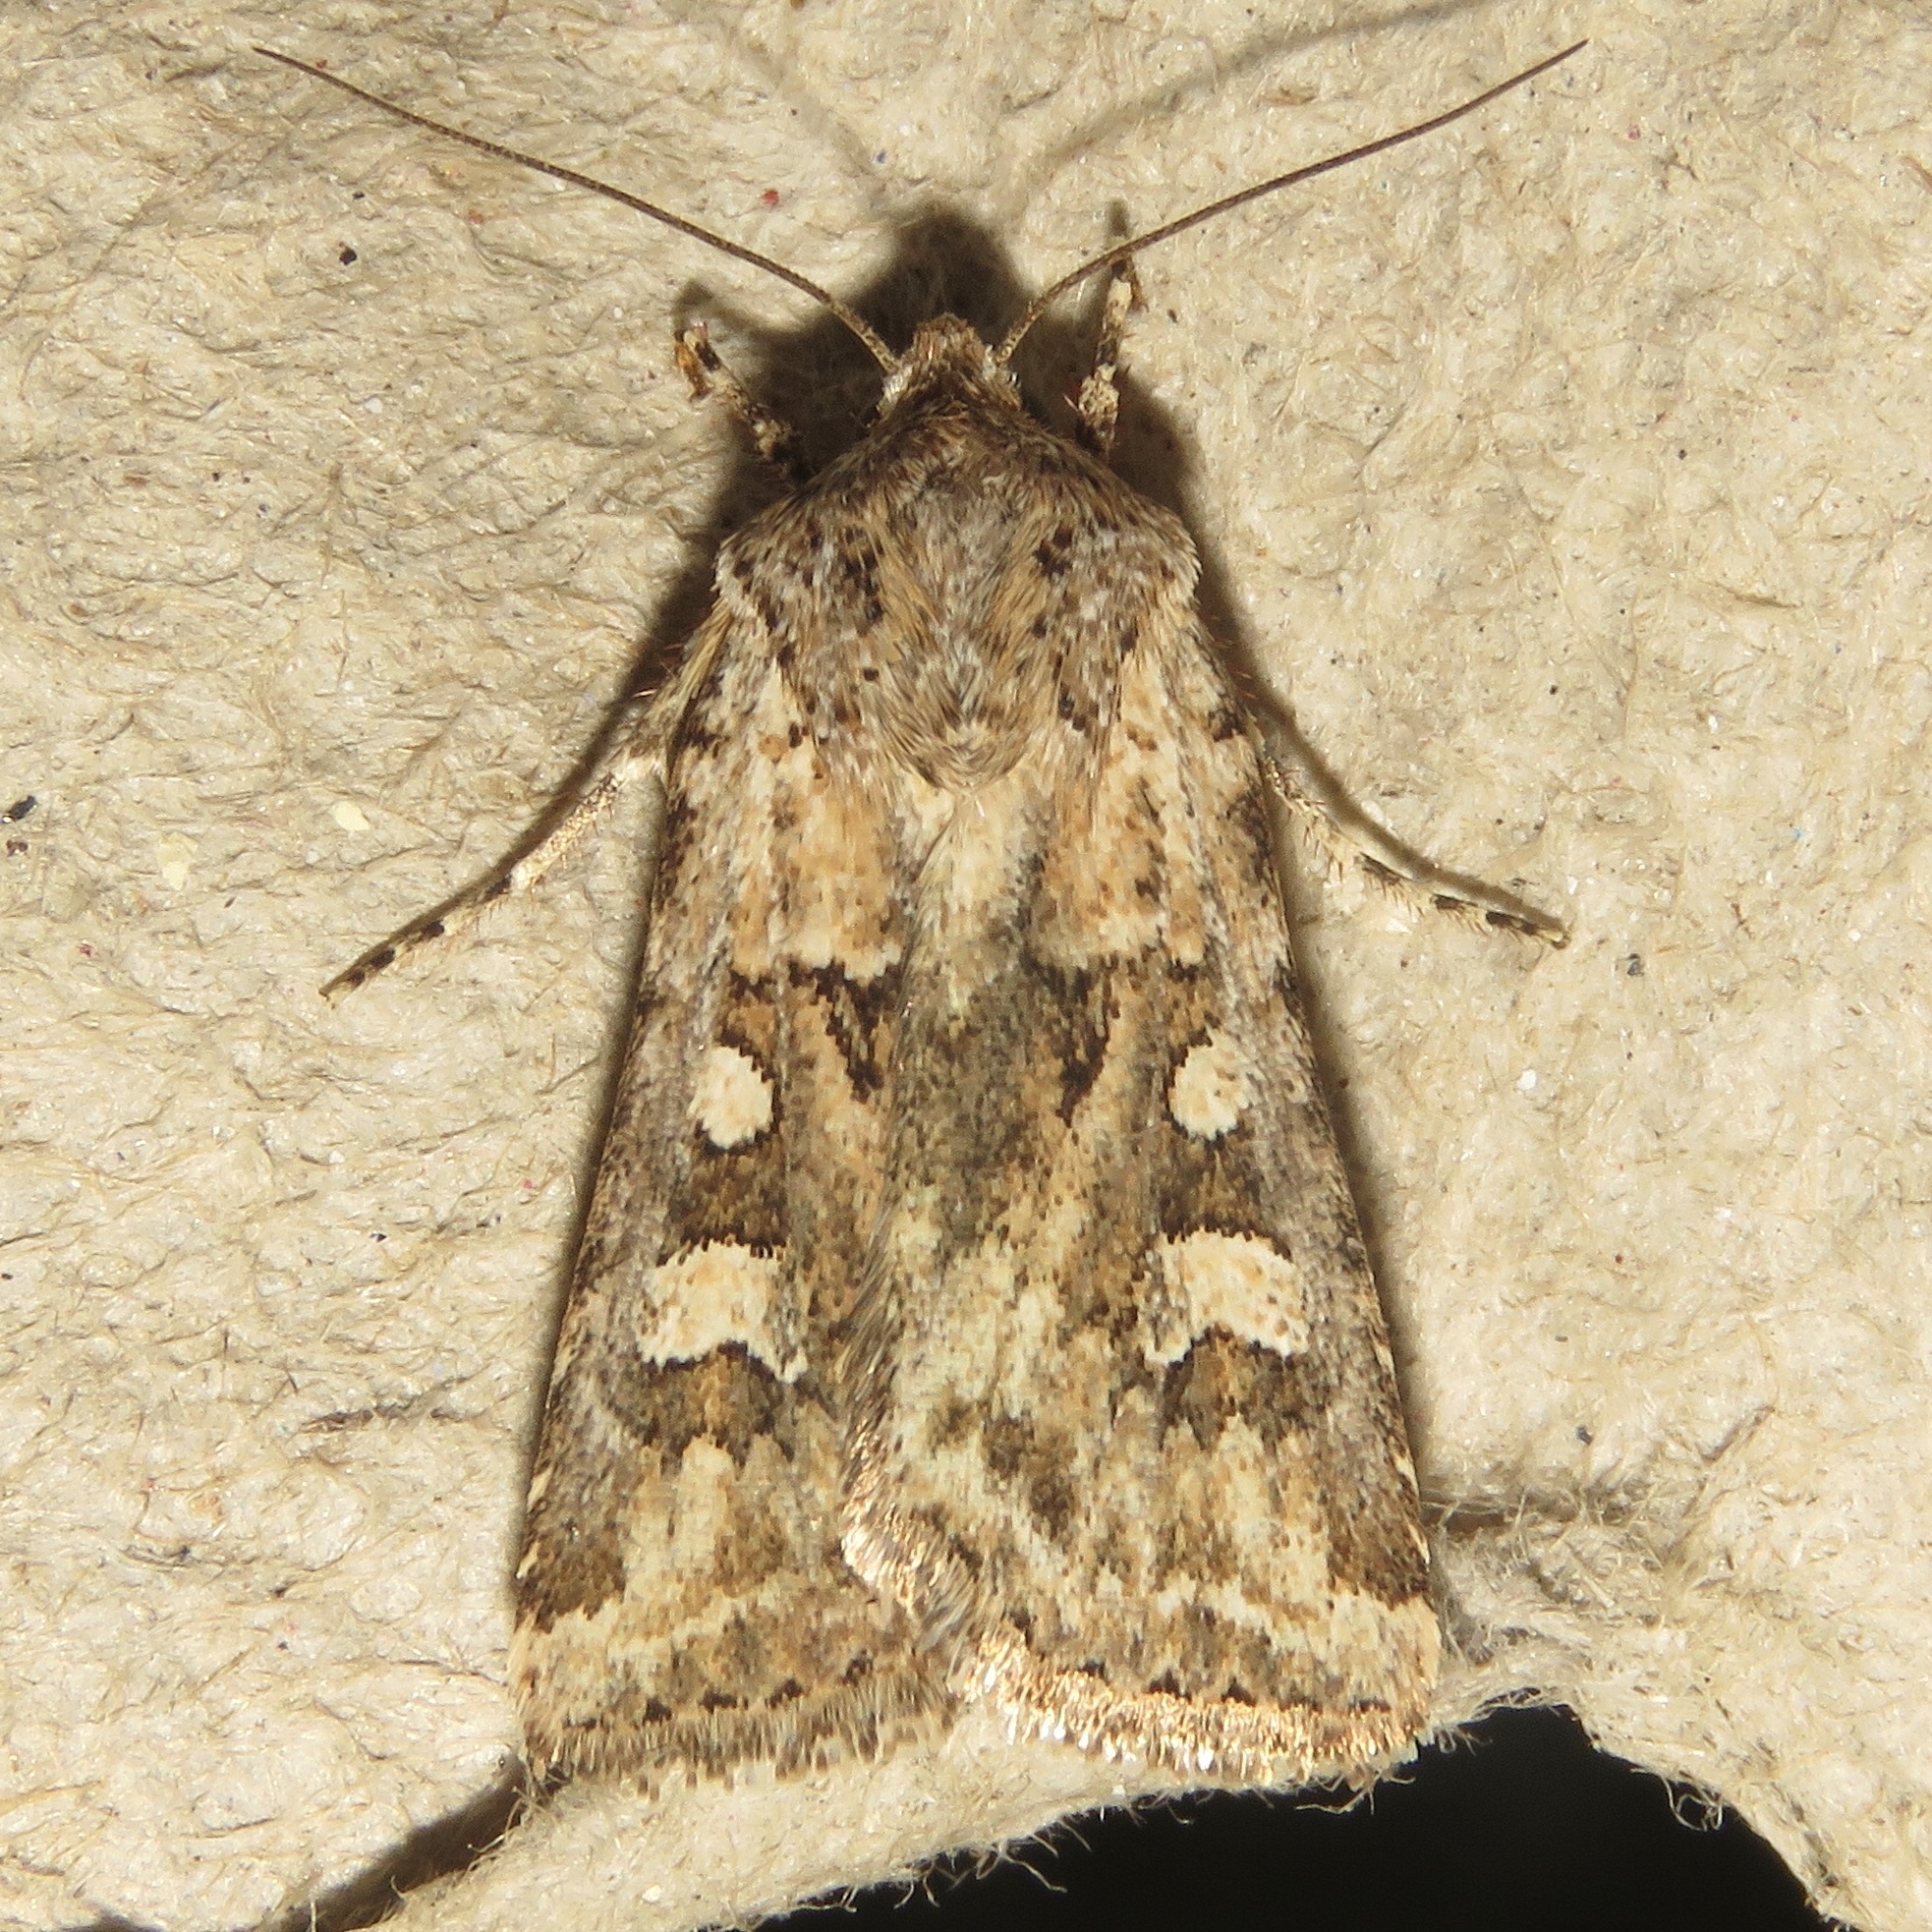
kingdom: Animalia
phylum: Arthropoda
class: Insecta
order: Lepidoptera
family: Noctuidae
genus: Euxoa
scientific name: Euxoa detersa
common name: Rubbed dart
